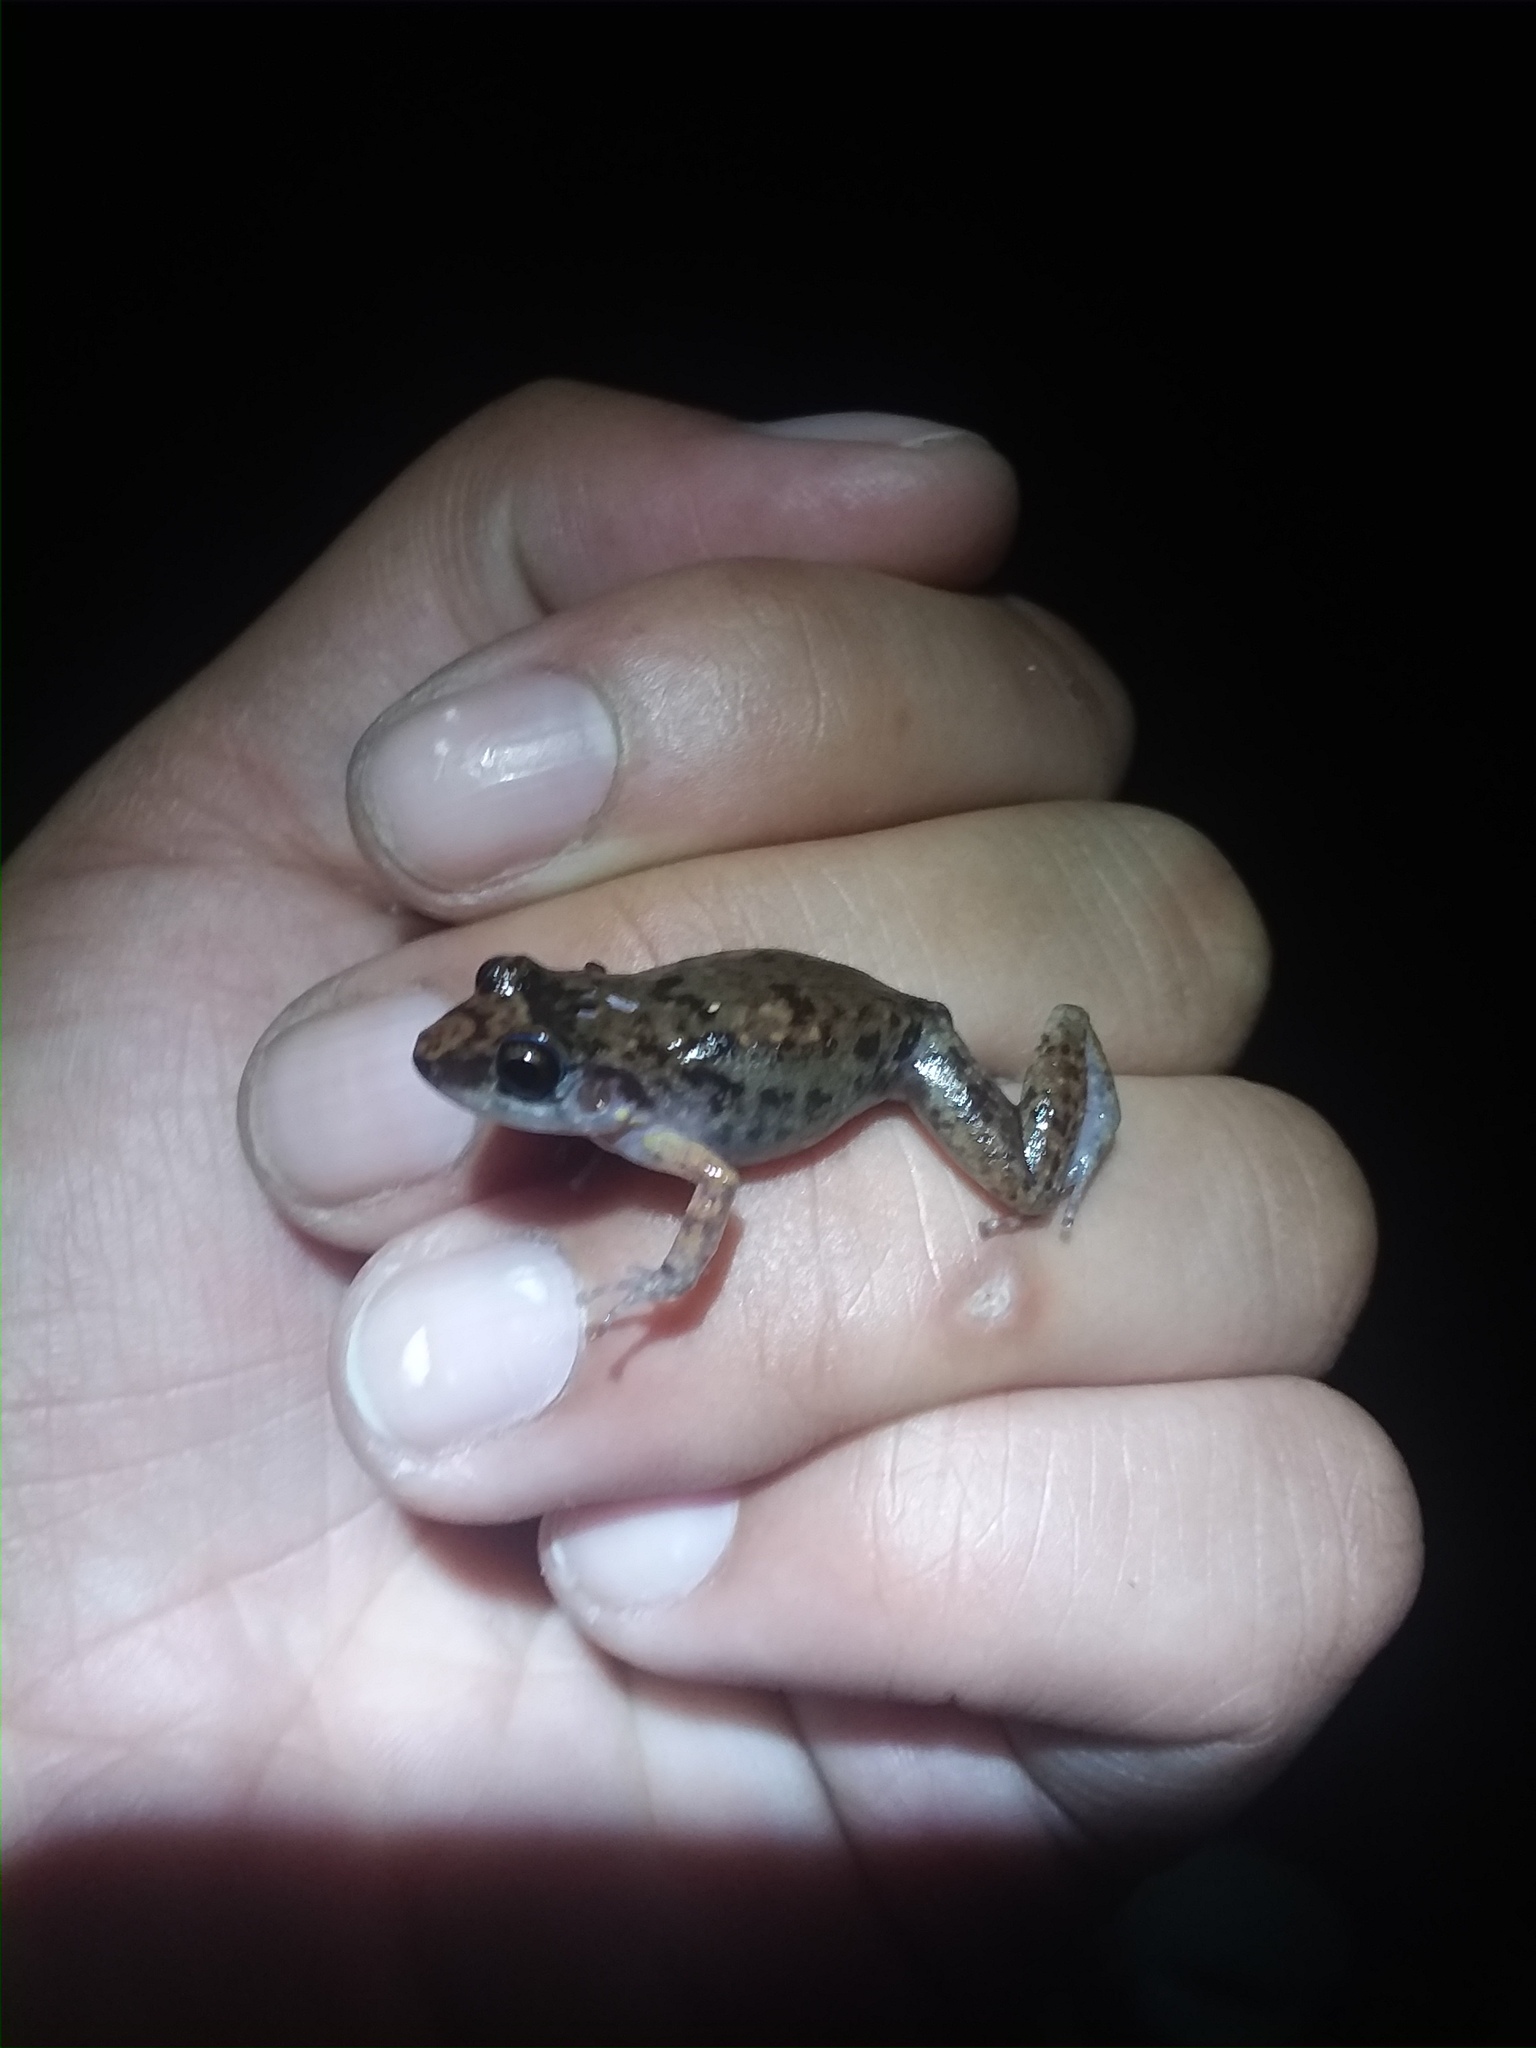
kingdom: Animalia
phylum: Chordata
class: Amphibia
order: Anura
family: Eleutherodactylidae
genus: Eleutherodactylus
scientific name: Eleutherodactylus planirostris
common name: Greenhouse frog
